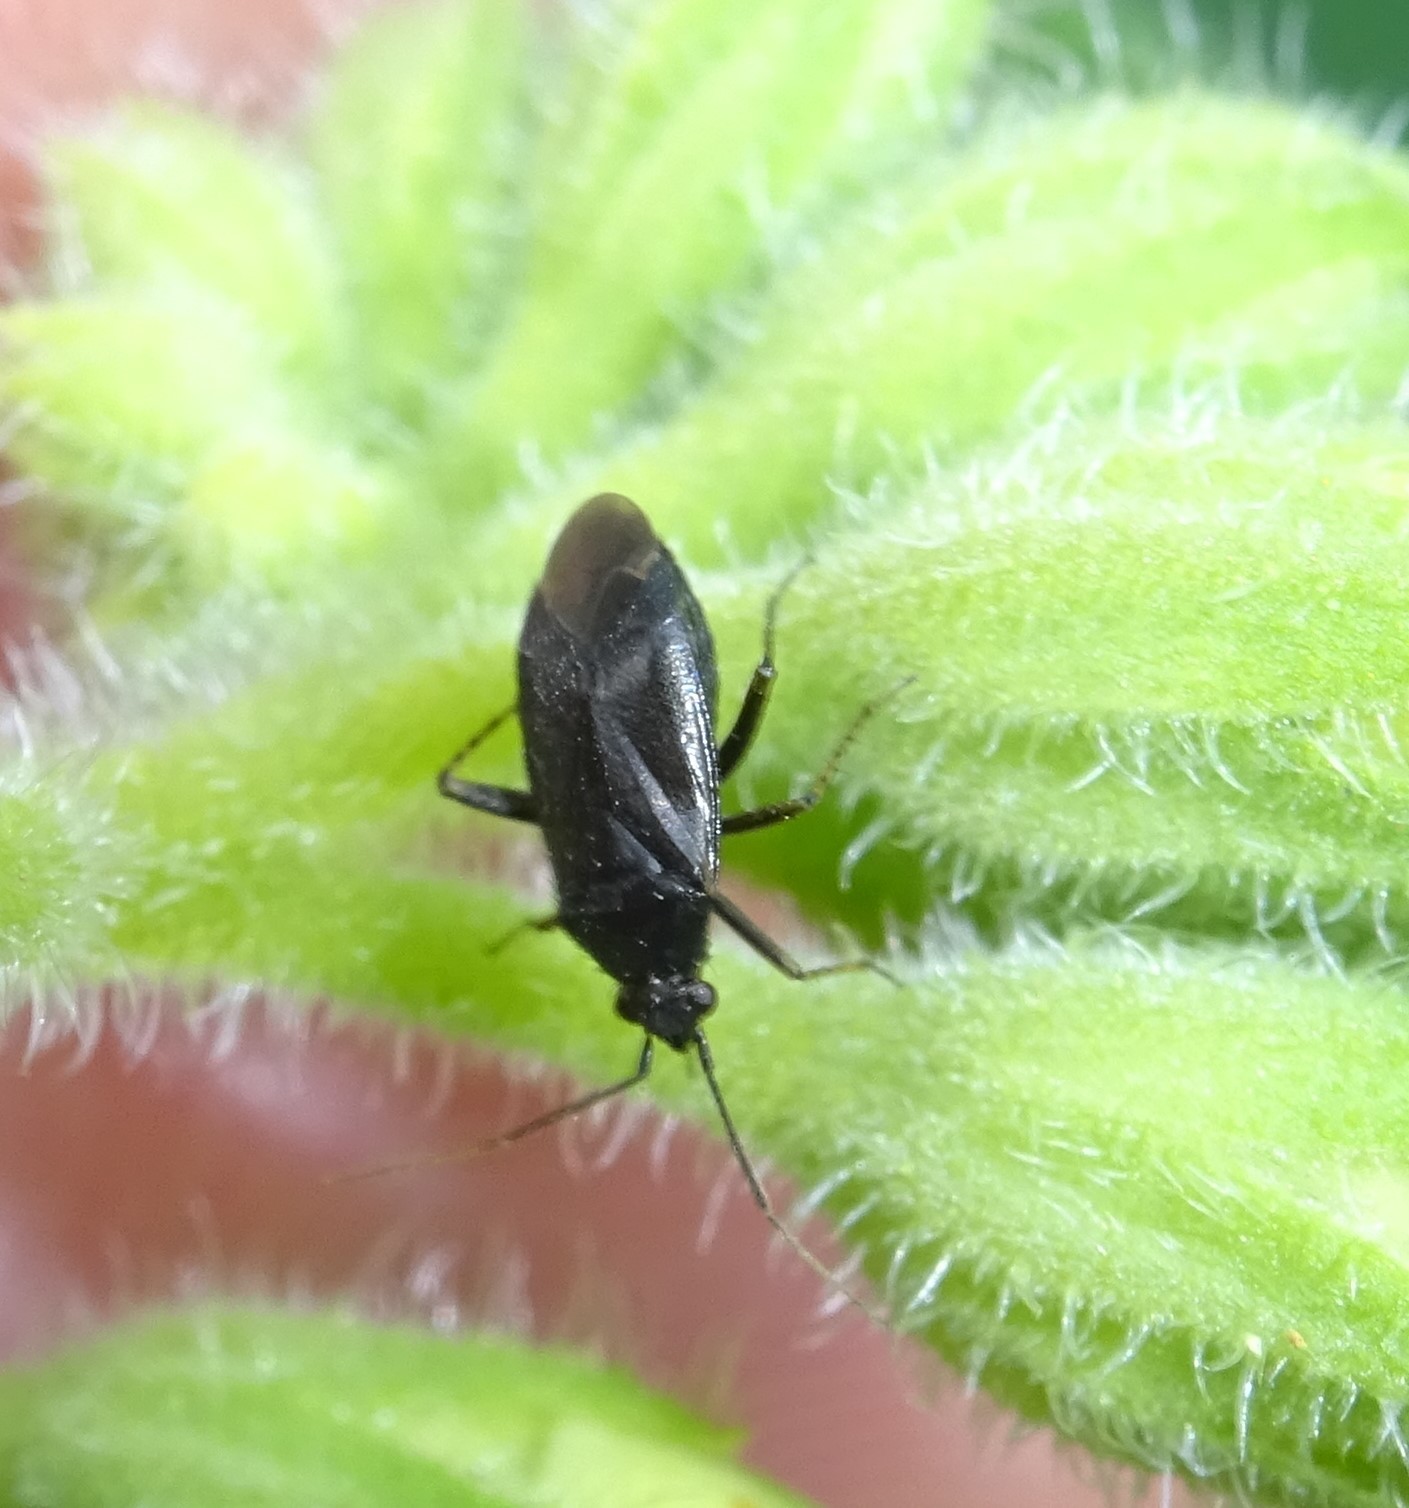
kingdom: Animalia
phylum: Arthropoda
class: Insecta
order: Hemiptera
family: Miridae
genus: Plagiognathus
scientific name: Plagiognathus arbustorum
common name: Plant bug
